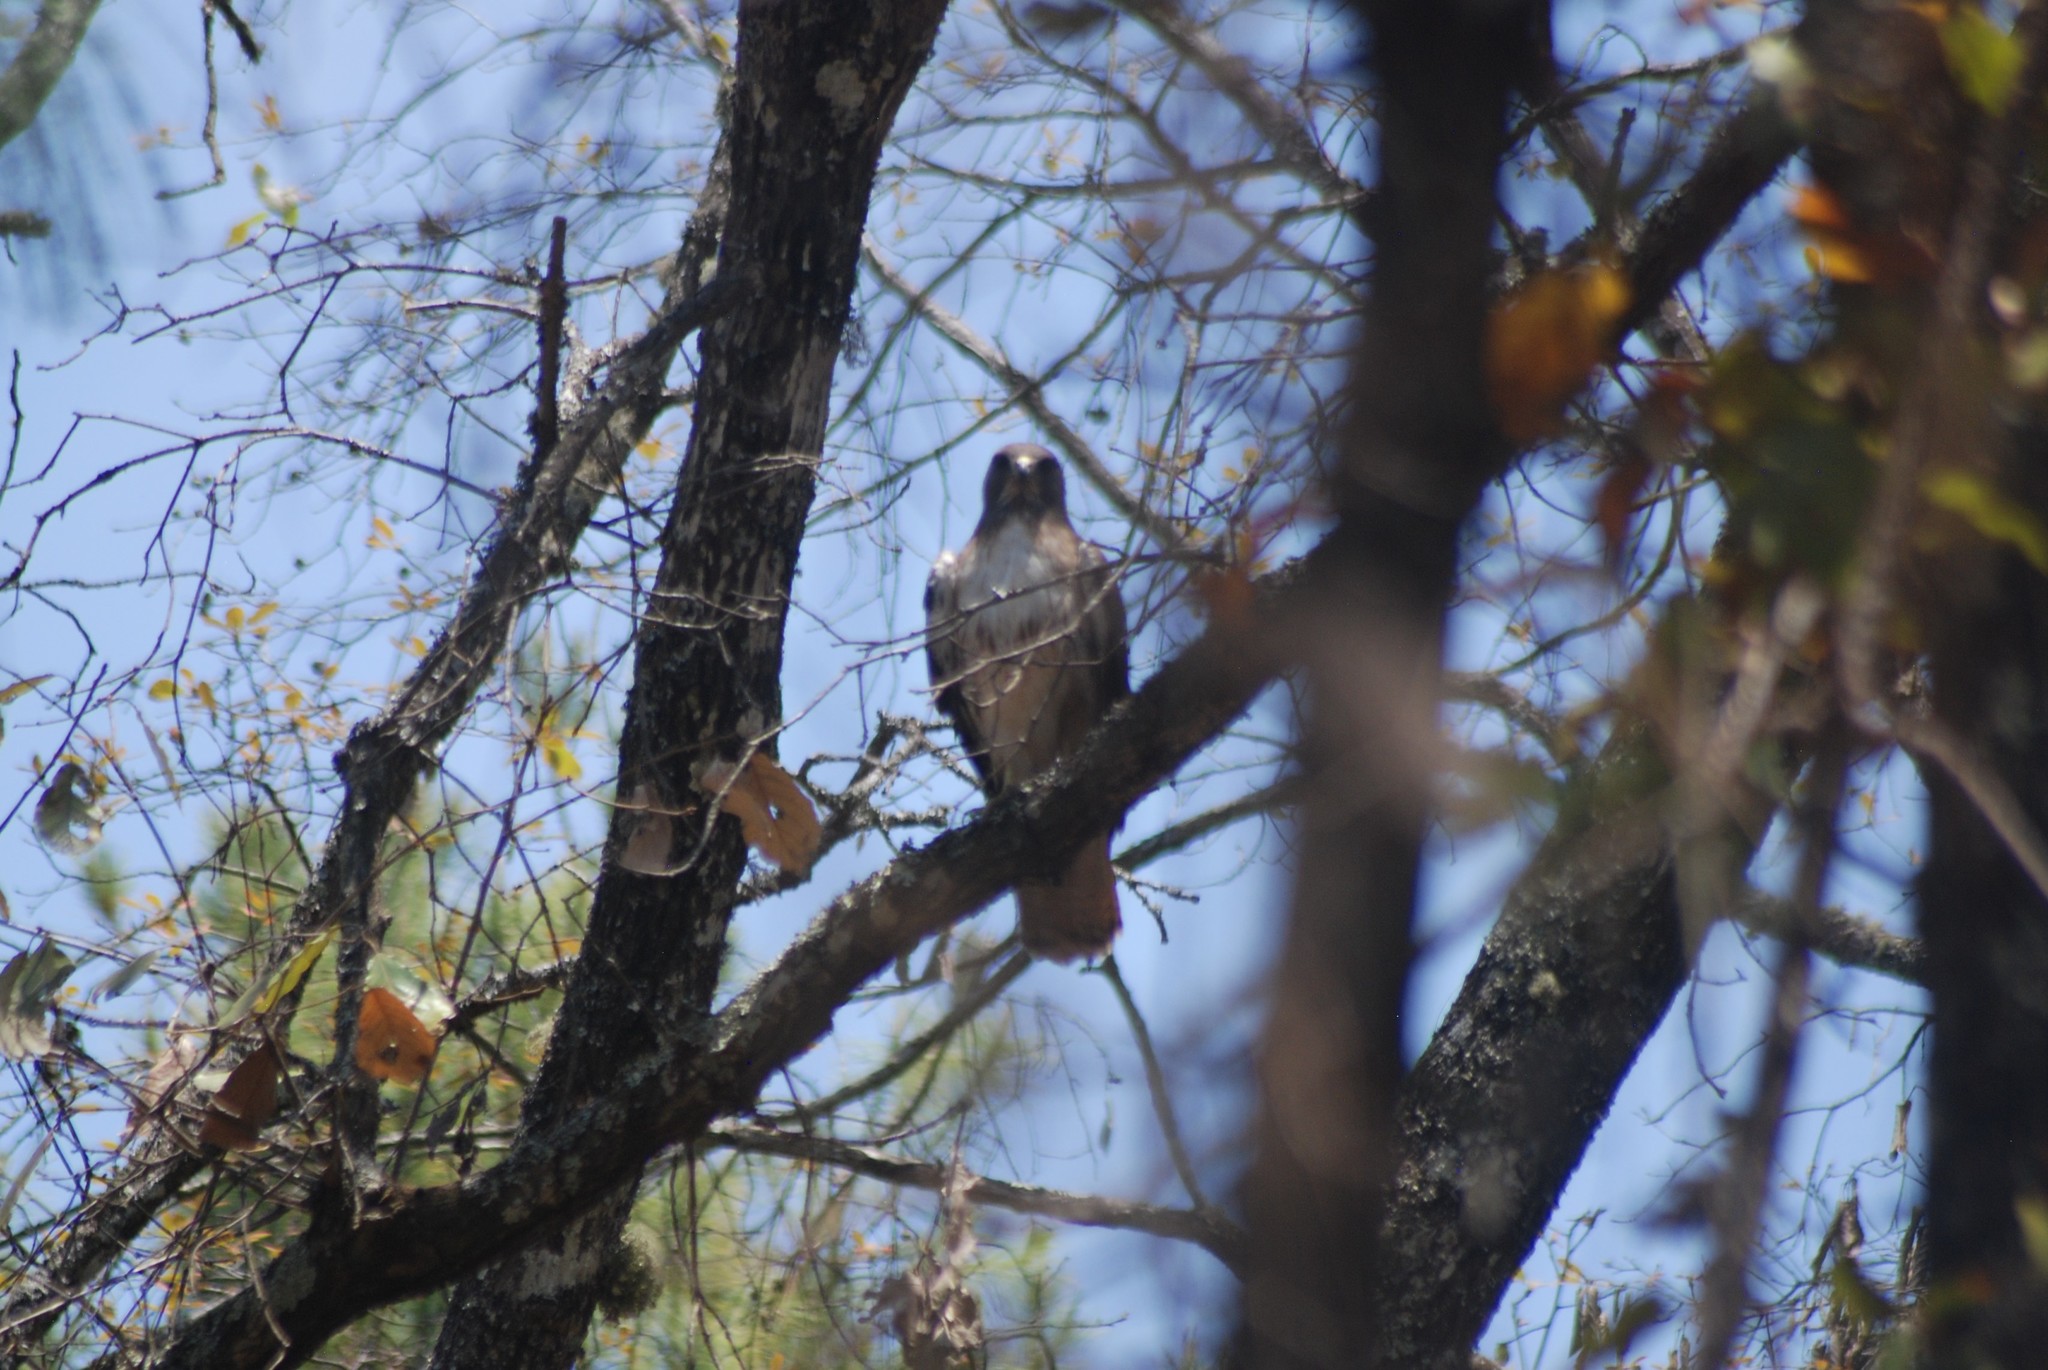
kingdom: Animalia
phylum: Chordata
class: Aves
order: Accipitriformes
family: Accipitridae
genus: Buteo
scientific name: Buteo jamaicensis
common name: Red-tailed hawk
